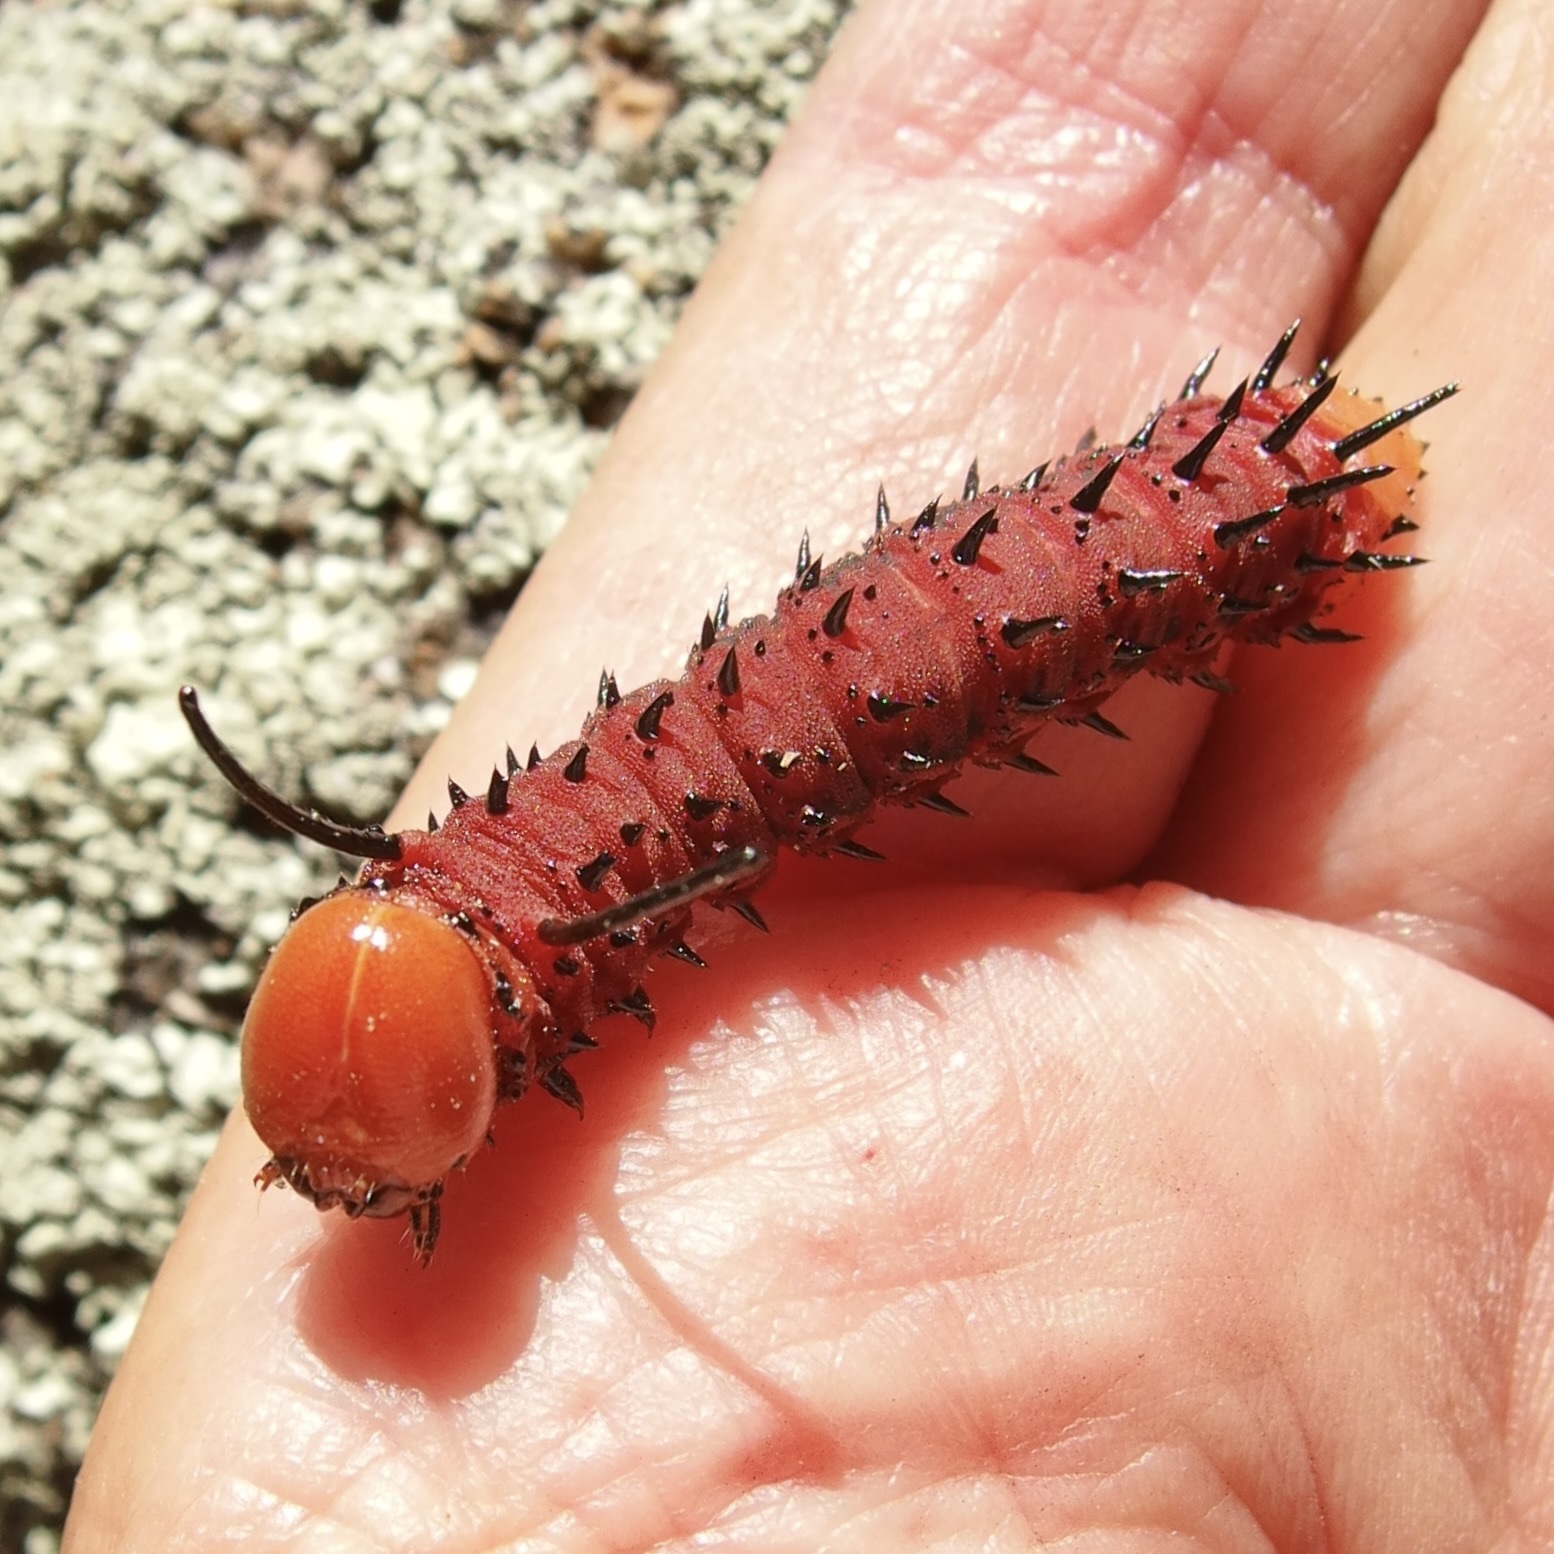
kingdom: Animalia
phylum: Arthropoda
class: Insecta
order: Lepidoptera
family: Saturniidae
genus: Anisota
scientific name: Anisota oslari
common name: Oslar's oakworm moth
